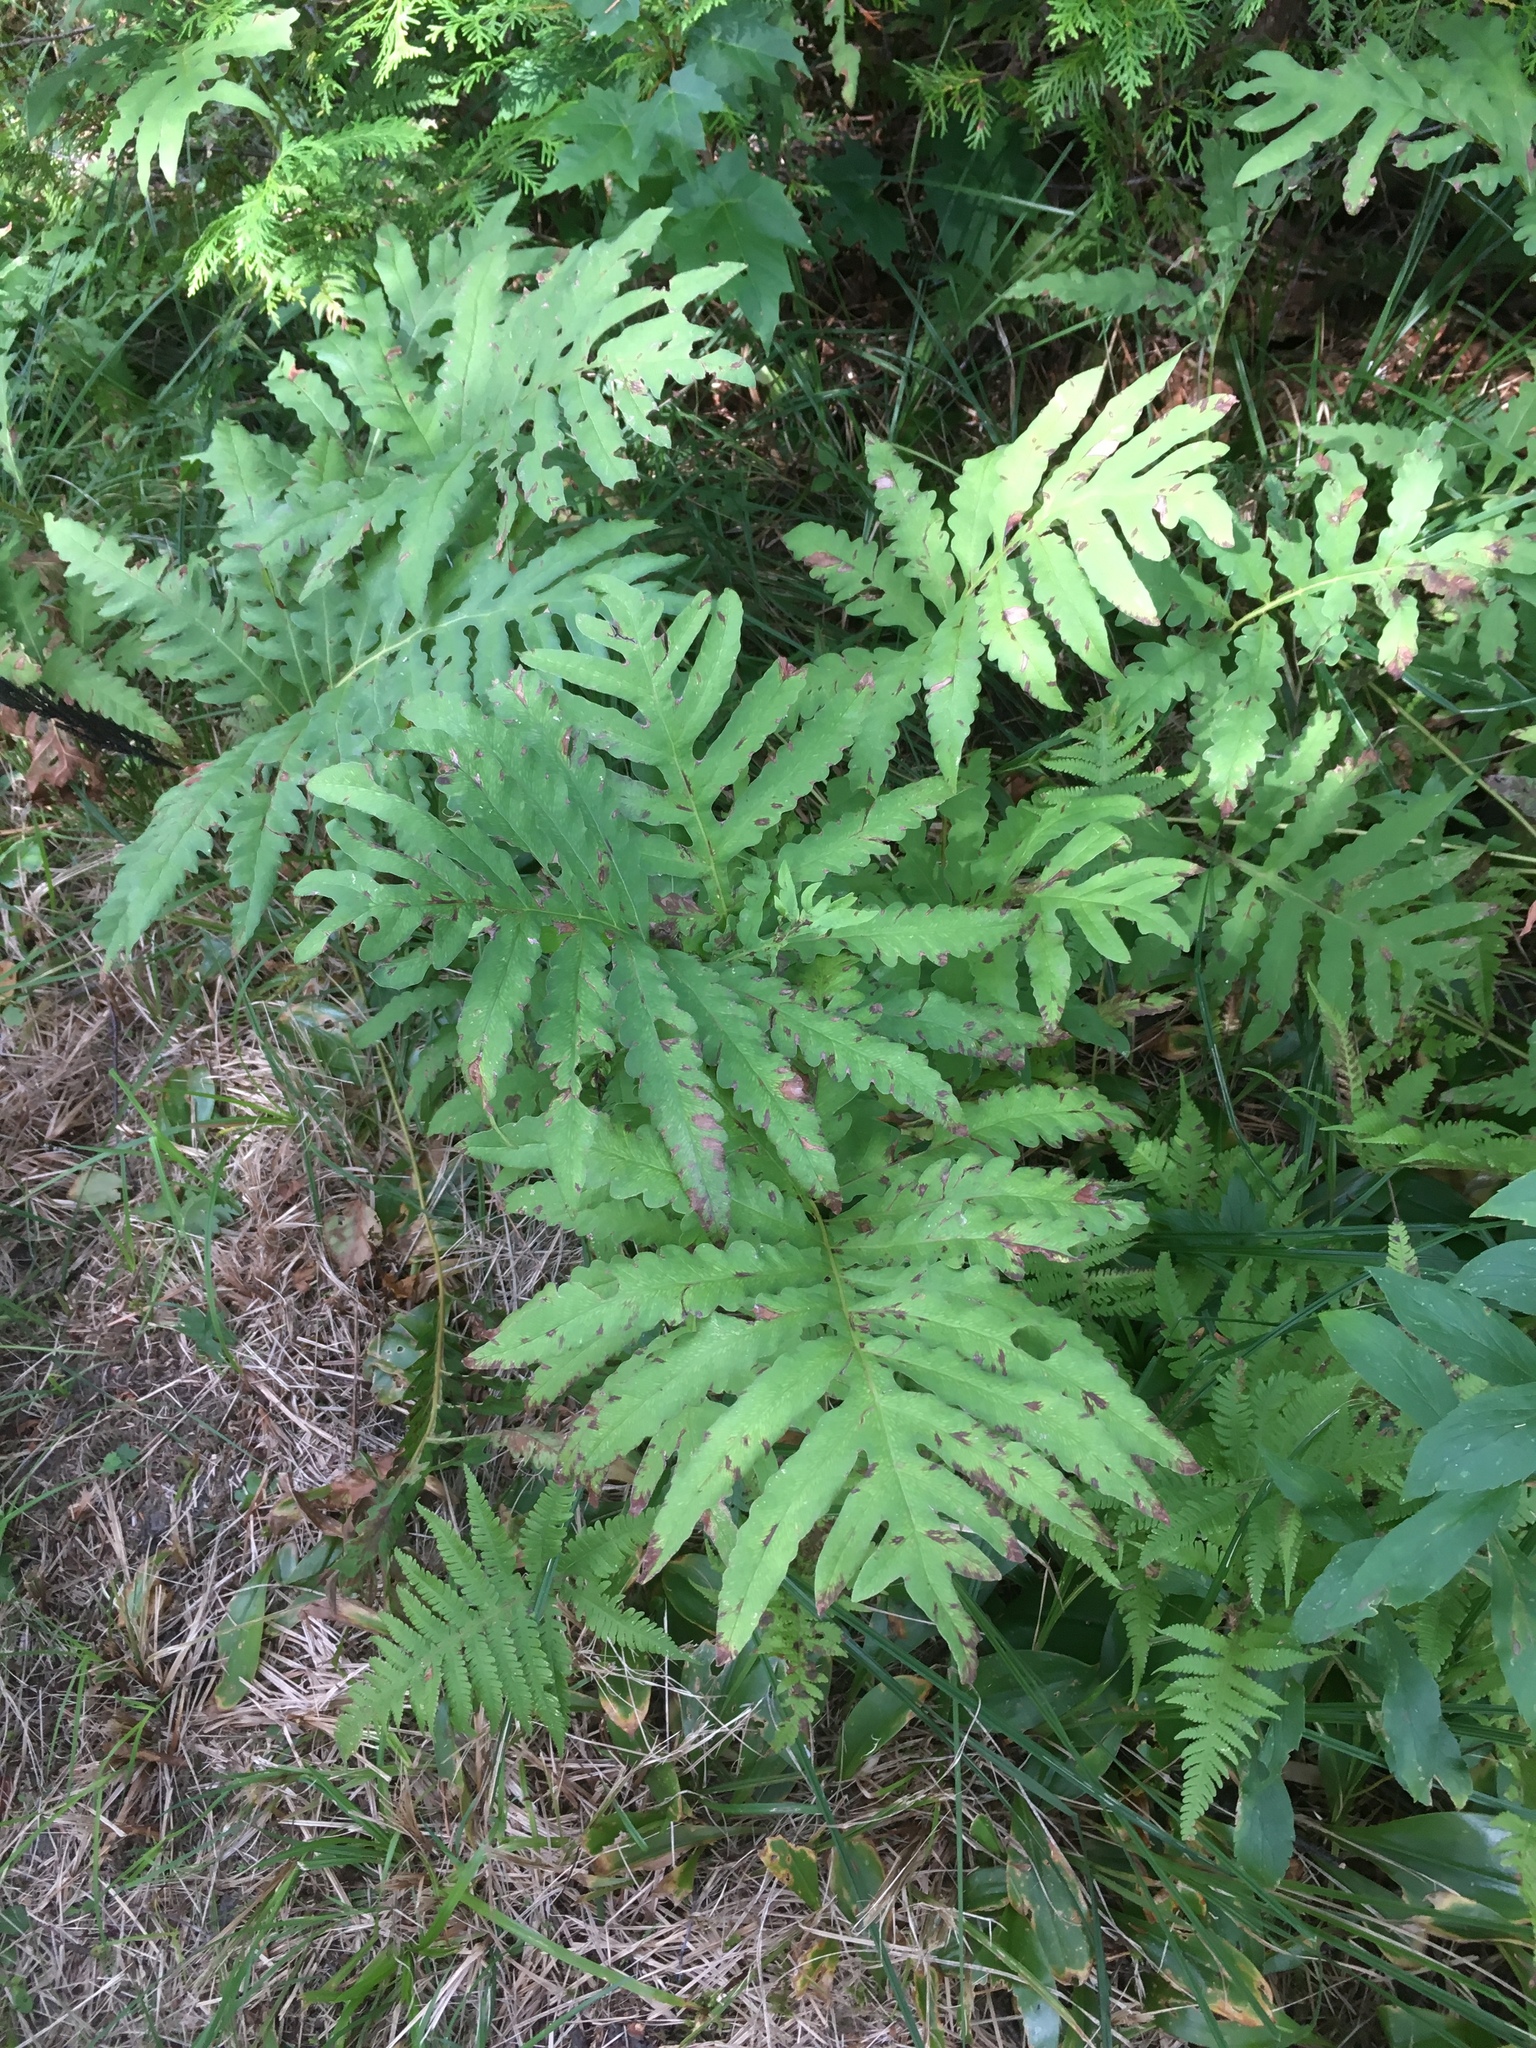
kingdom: Plantae
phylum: Tracheophyta
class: Polypodiopsida
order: Polypodiales
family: Onocleaceae
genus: Onoclea
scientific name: Onoclea sensibilis
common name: Sensitive fern
